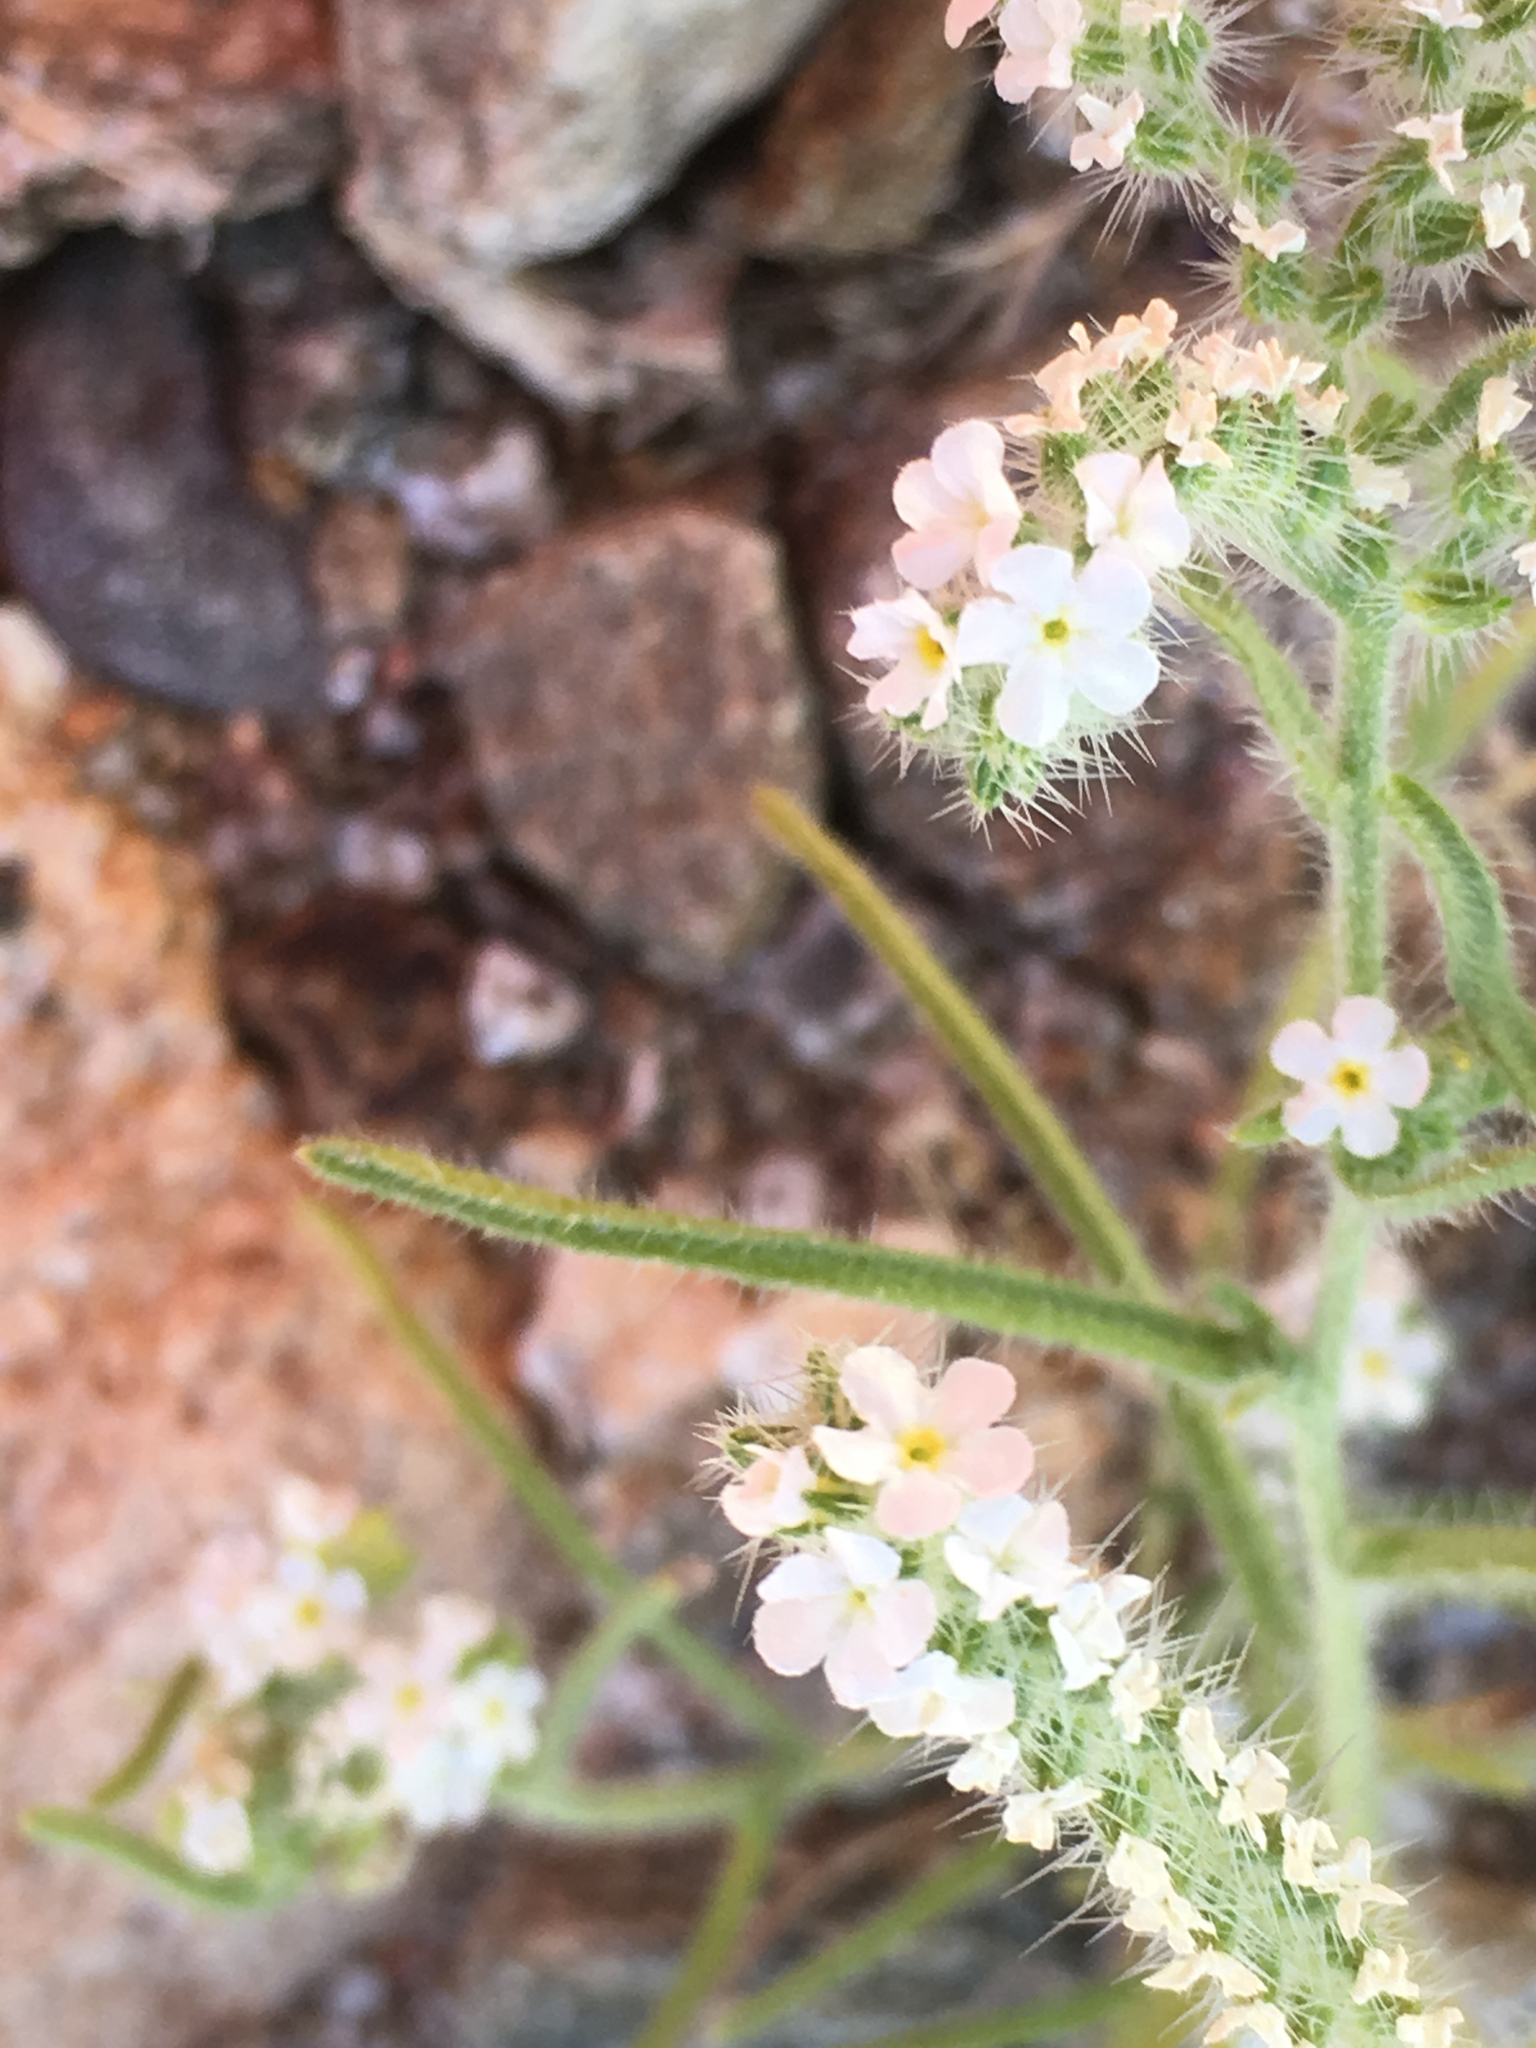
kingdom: Plantae
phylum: Tracheophyta
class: Magnoliopsida
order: Boraginales
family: Boraginaceae
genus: Johnstonella
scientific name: Johnstonella angustifolia
